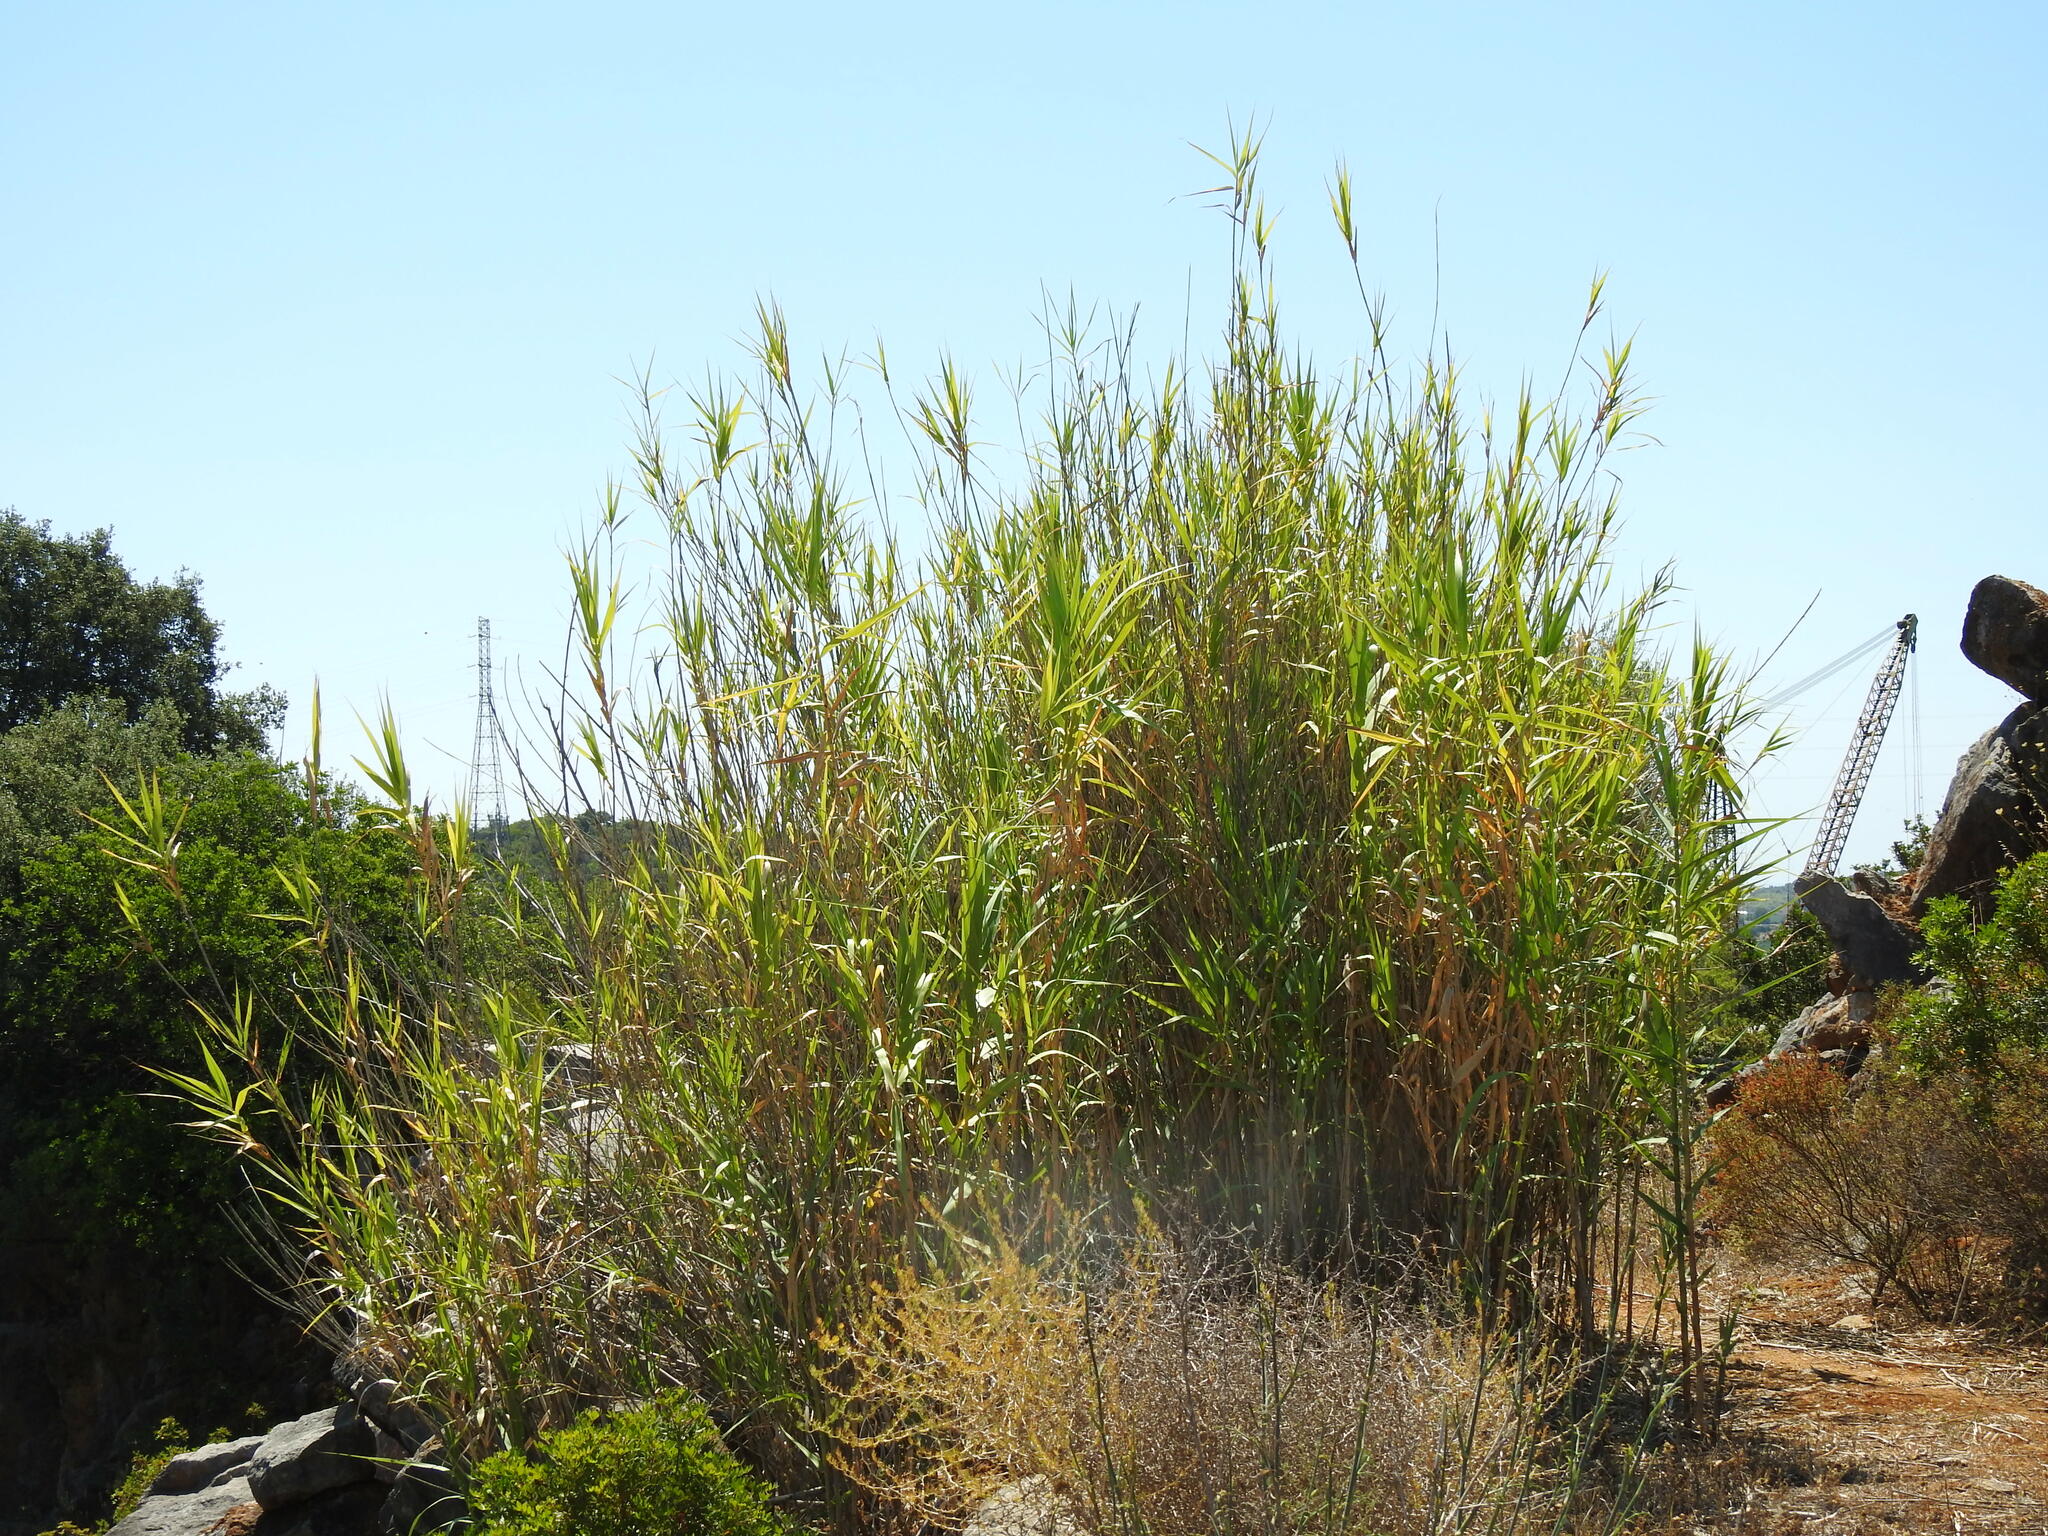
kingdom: Plantae
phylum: Tracheophyta
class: Liliopsida
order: Poales
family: Poaceae
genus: Arundo
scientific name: Arundo donax
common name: Giant reed
